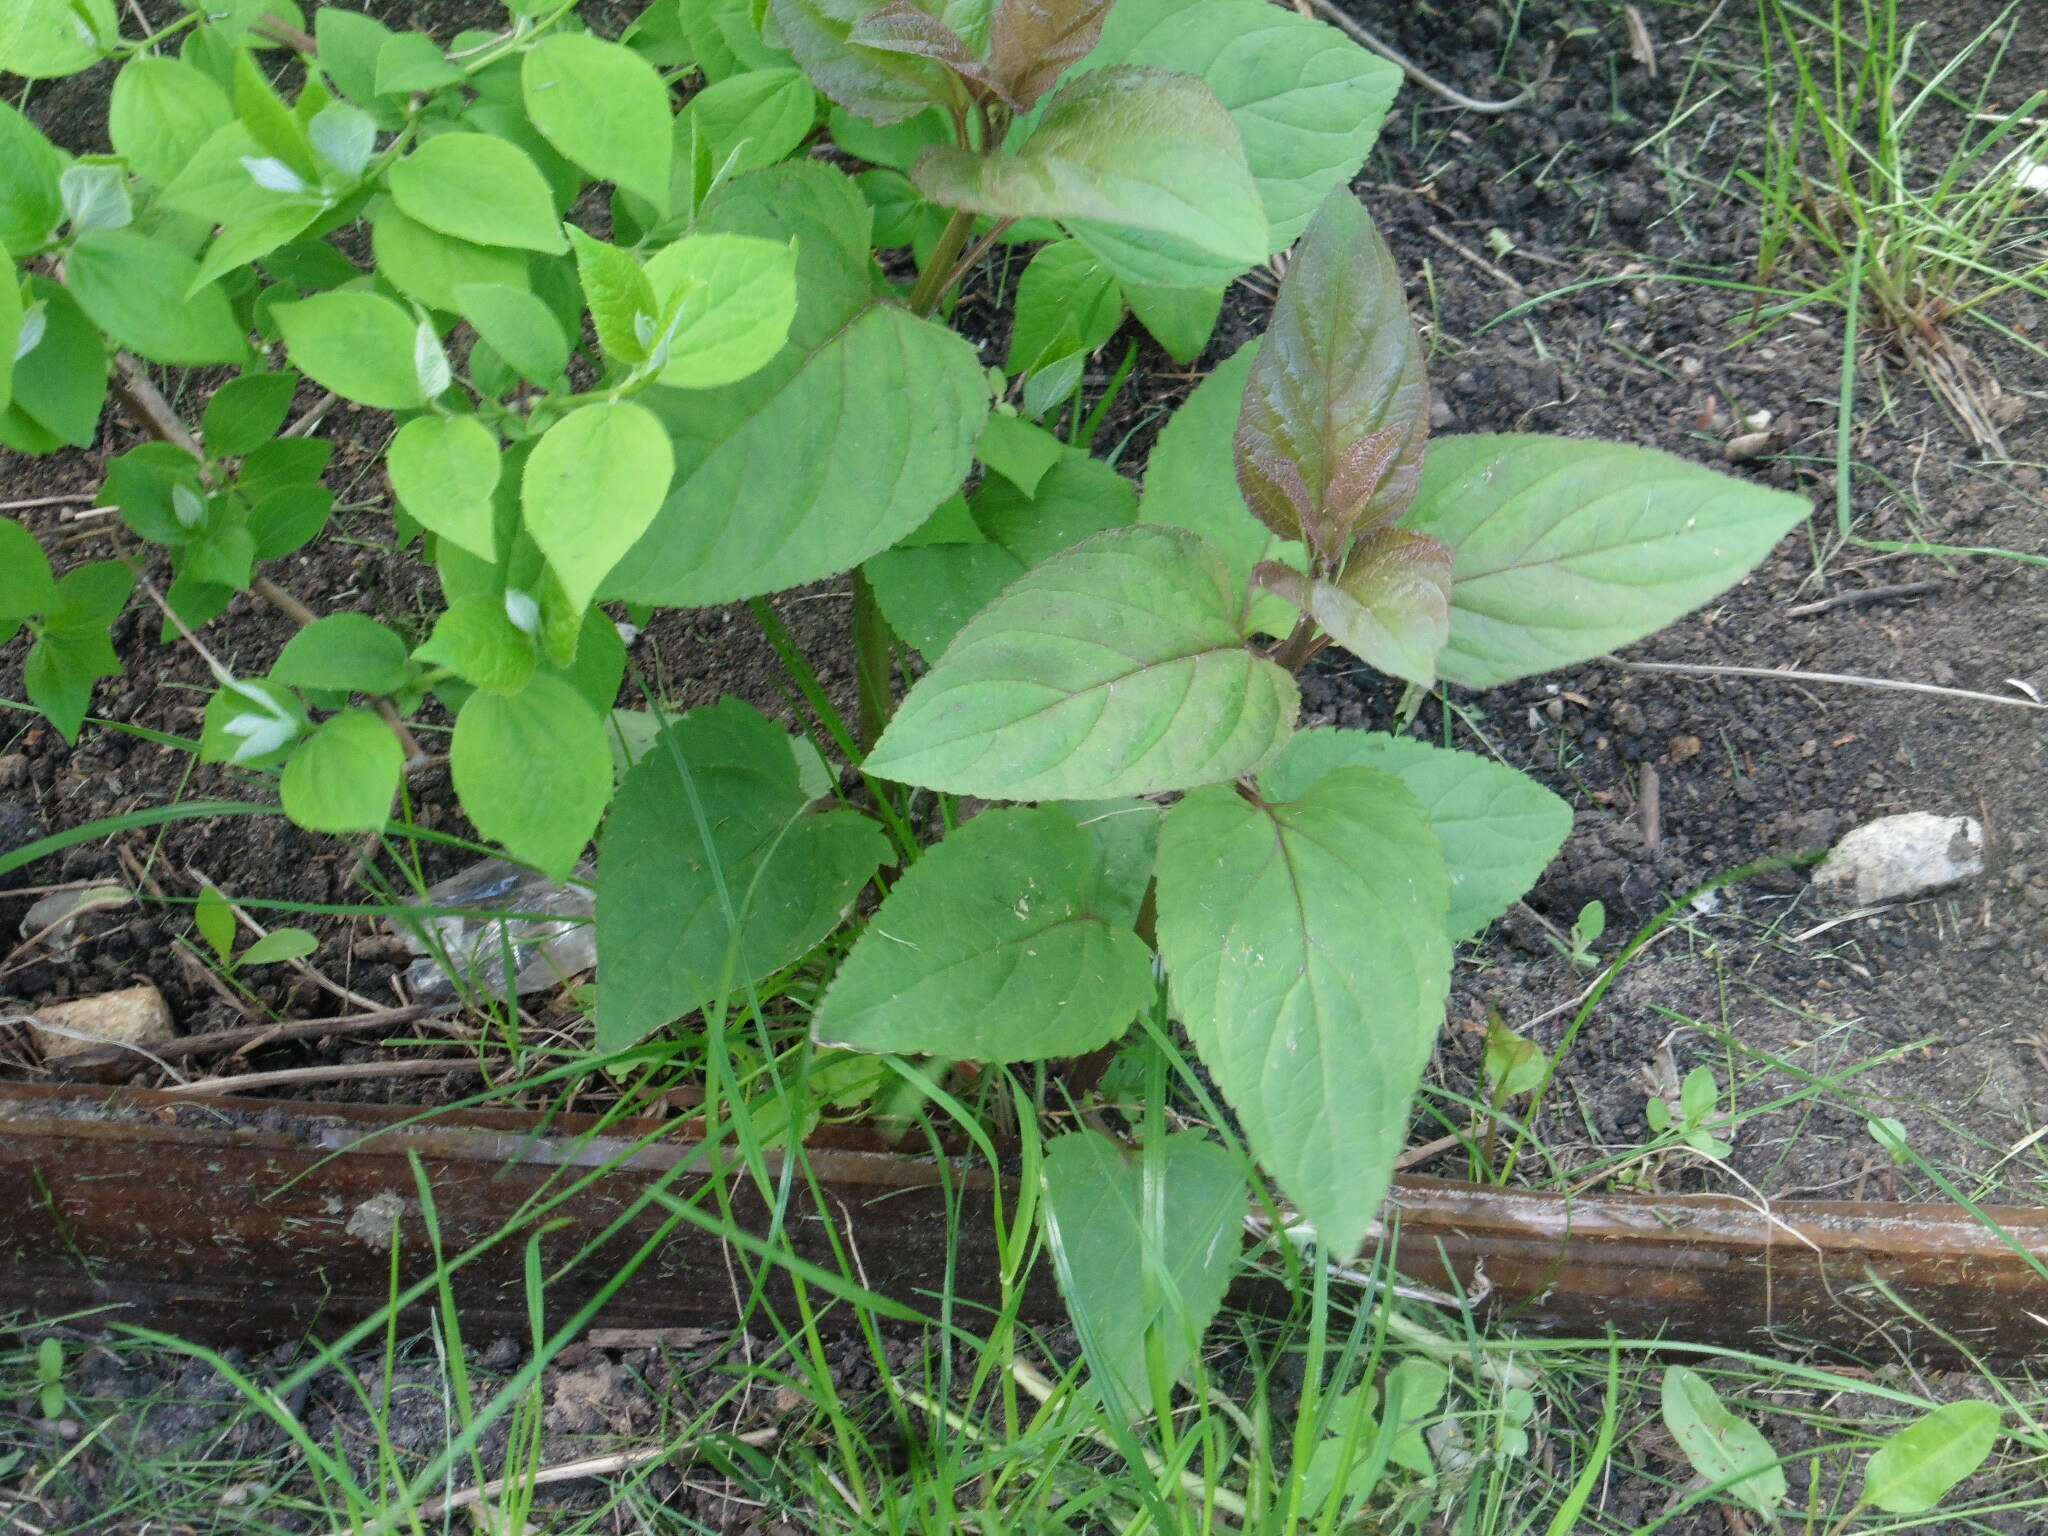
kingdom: Plantae
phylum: Tracheophyta
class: Magnoliopsida
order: Lamiales
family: Scrophulariaceae
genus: Scrophularia
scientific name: Scrophularia nodosa
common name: Common figwort
